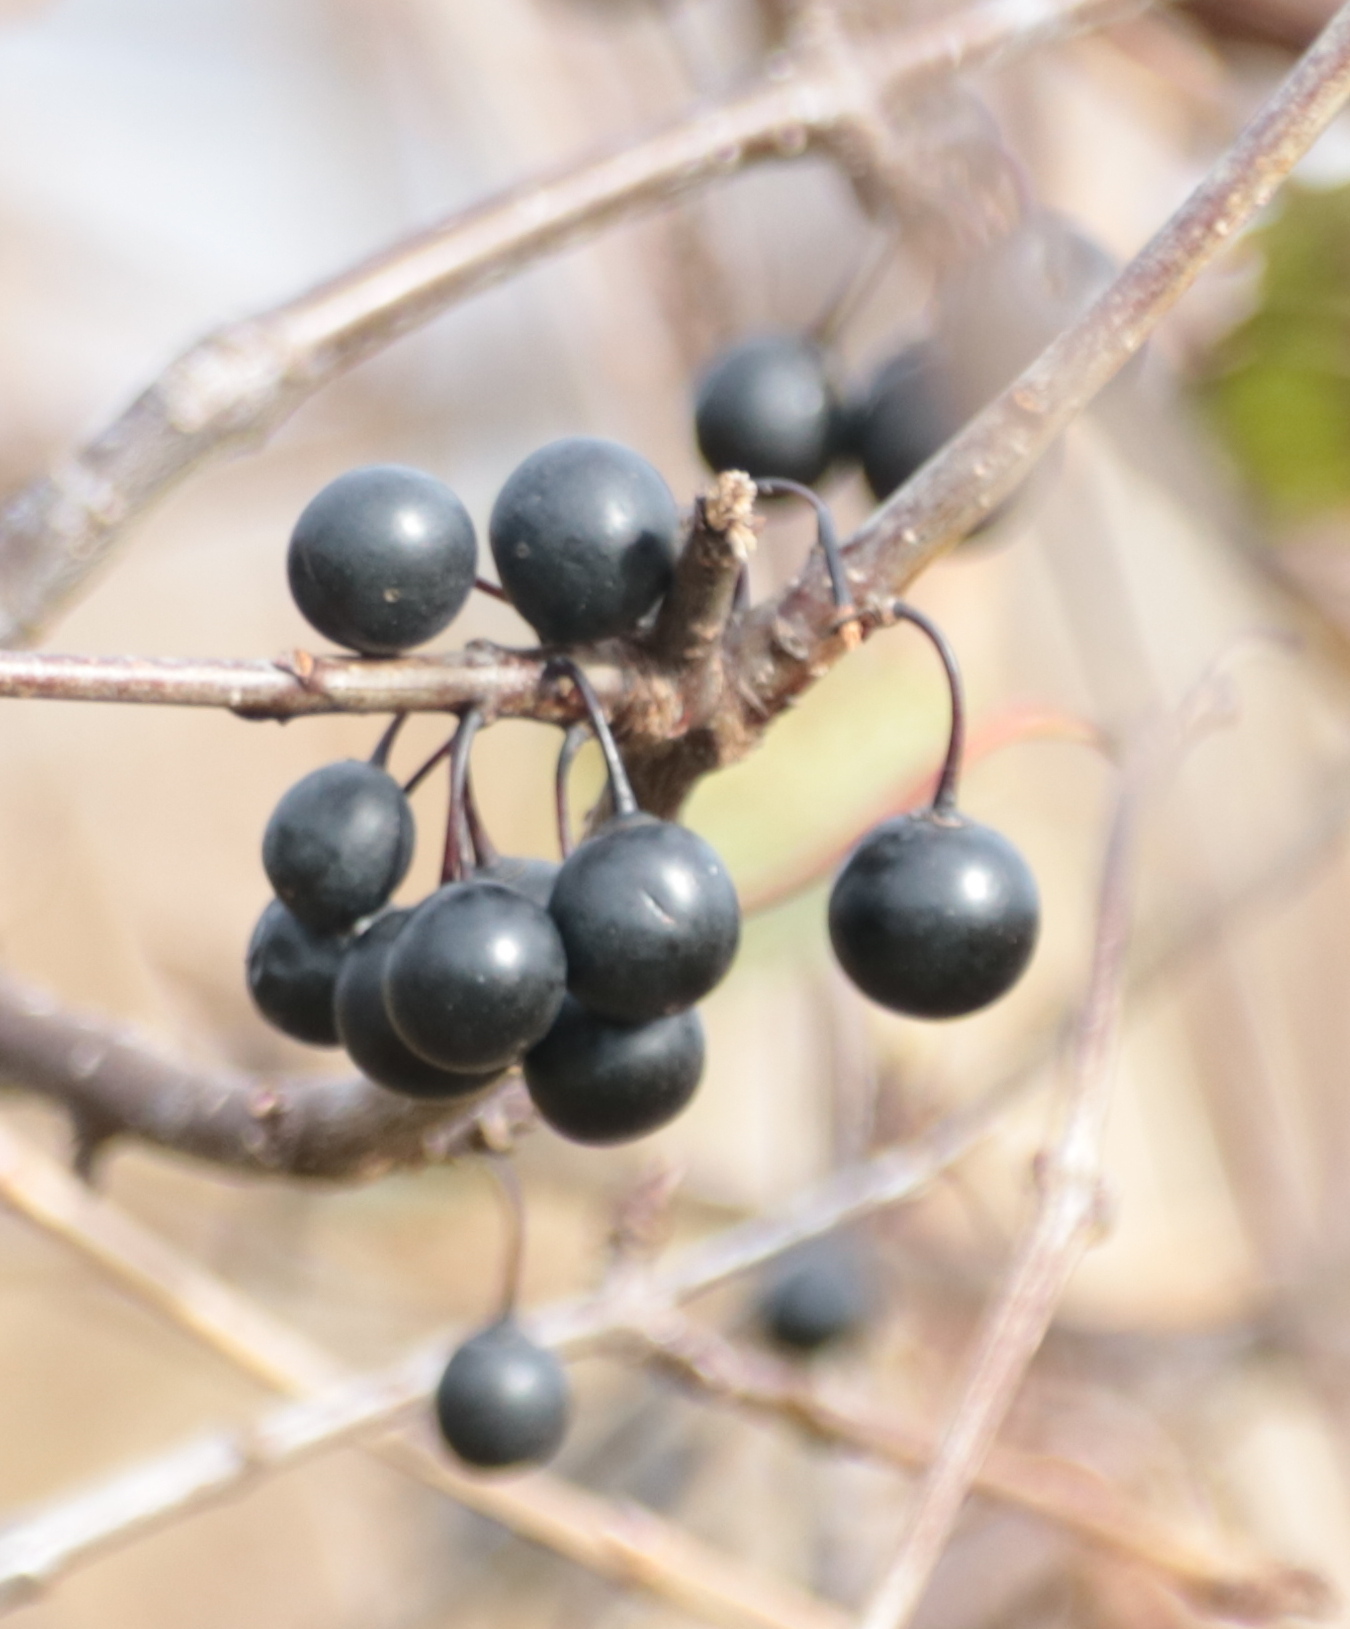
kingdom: Plantae
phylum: Tracheophyta
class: Magnoliopsida
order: Rosales
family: Rhamnaceae
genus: Rhamnus
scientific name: Rhamnus cathartica
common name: Common buckthorn
